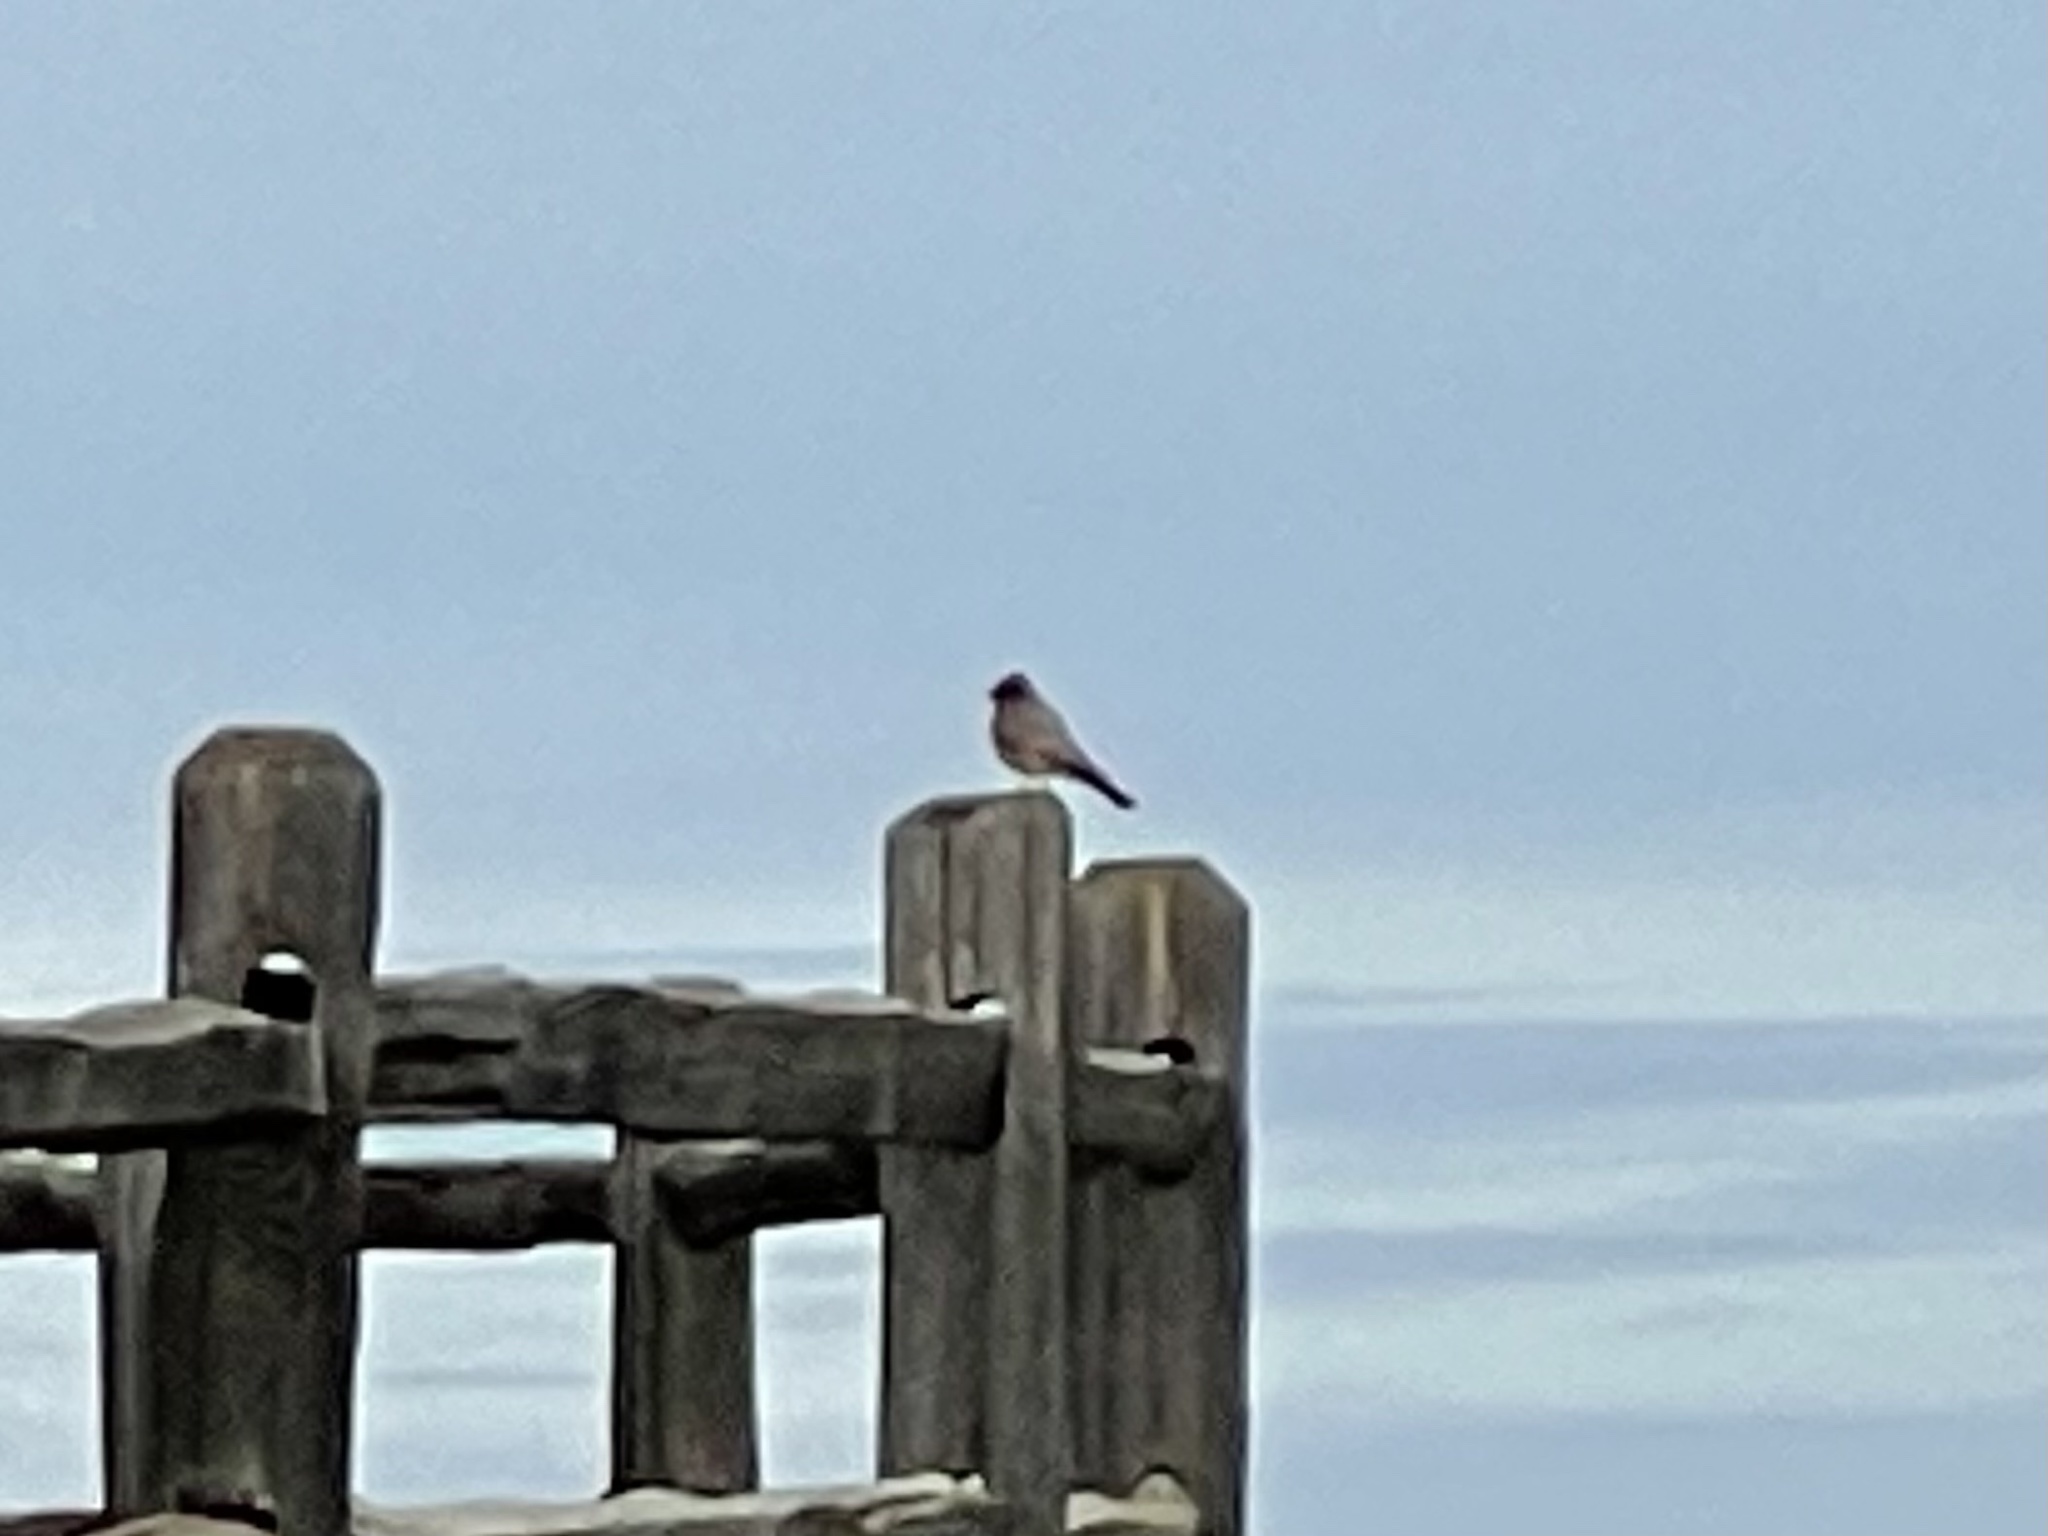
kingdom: Animalia
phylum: Chordata
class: Aves
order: Passeriformes
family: Tyrannidae
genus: Sayornis
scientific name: Sayornis saya
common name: Say's phoebe
